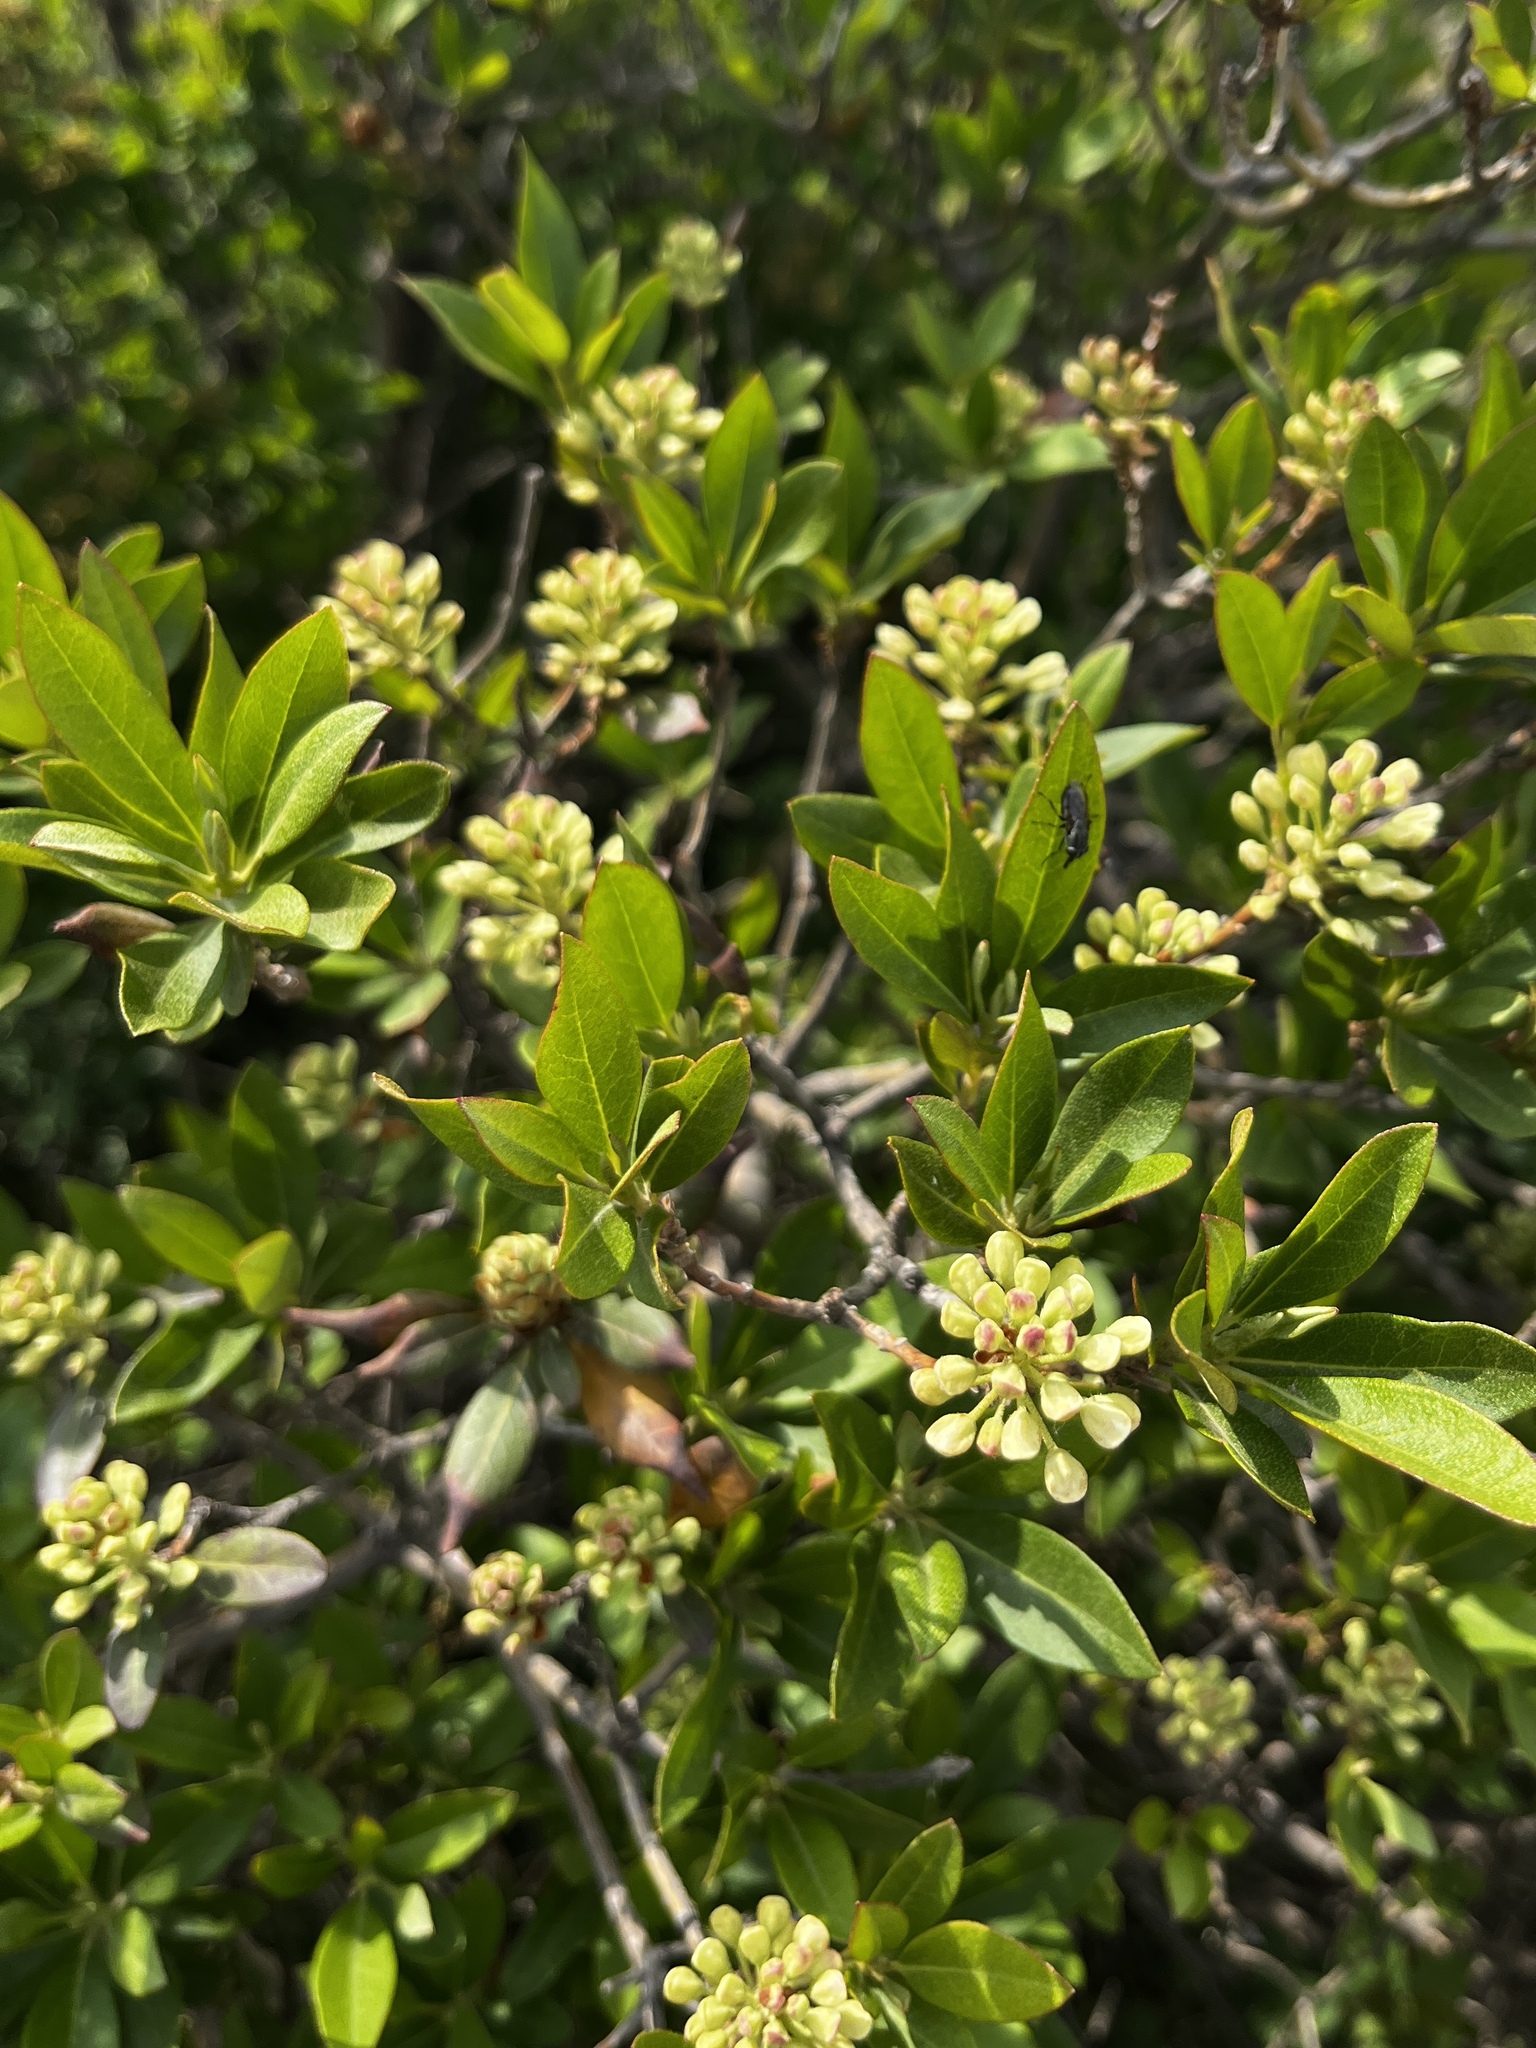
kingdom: Plantae
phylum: Tracheophyta
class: Magnoliopsida
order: Ericales
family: Ericaceae
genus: Rhododendron
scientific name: Rhododendron micranthum
